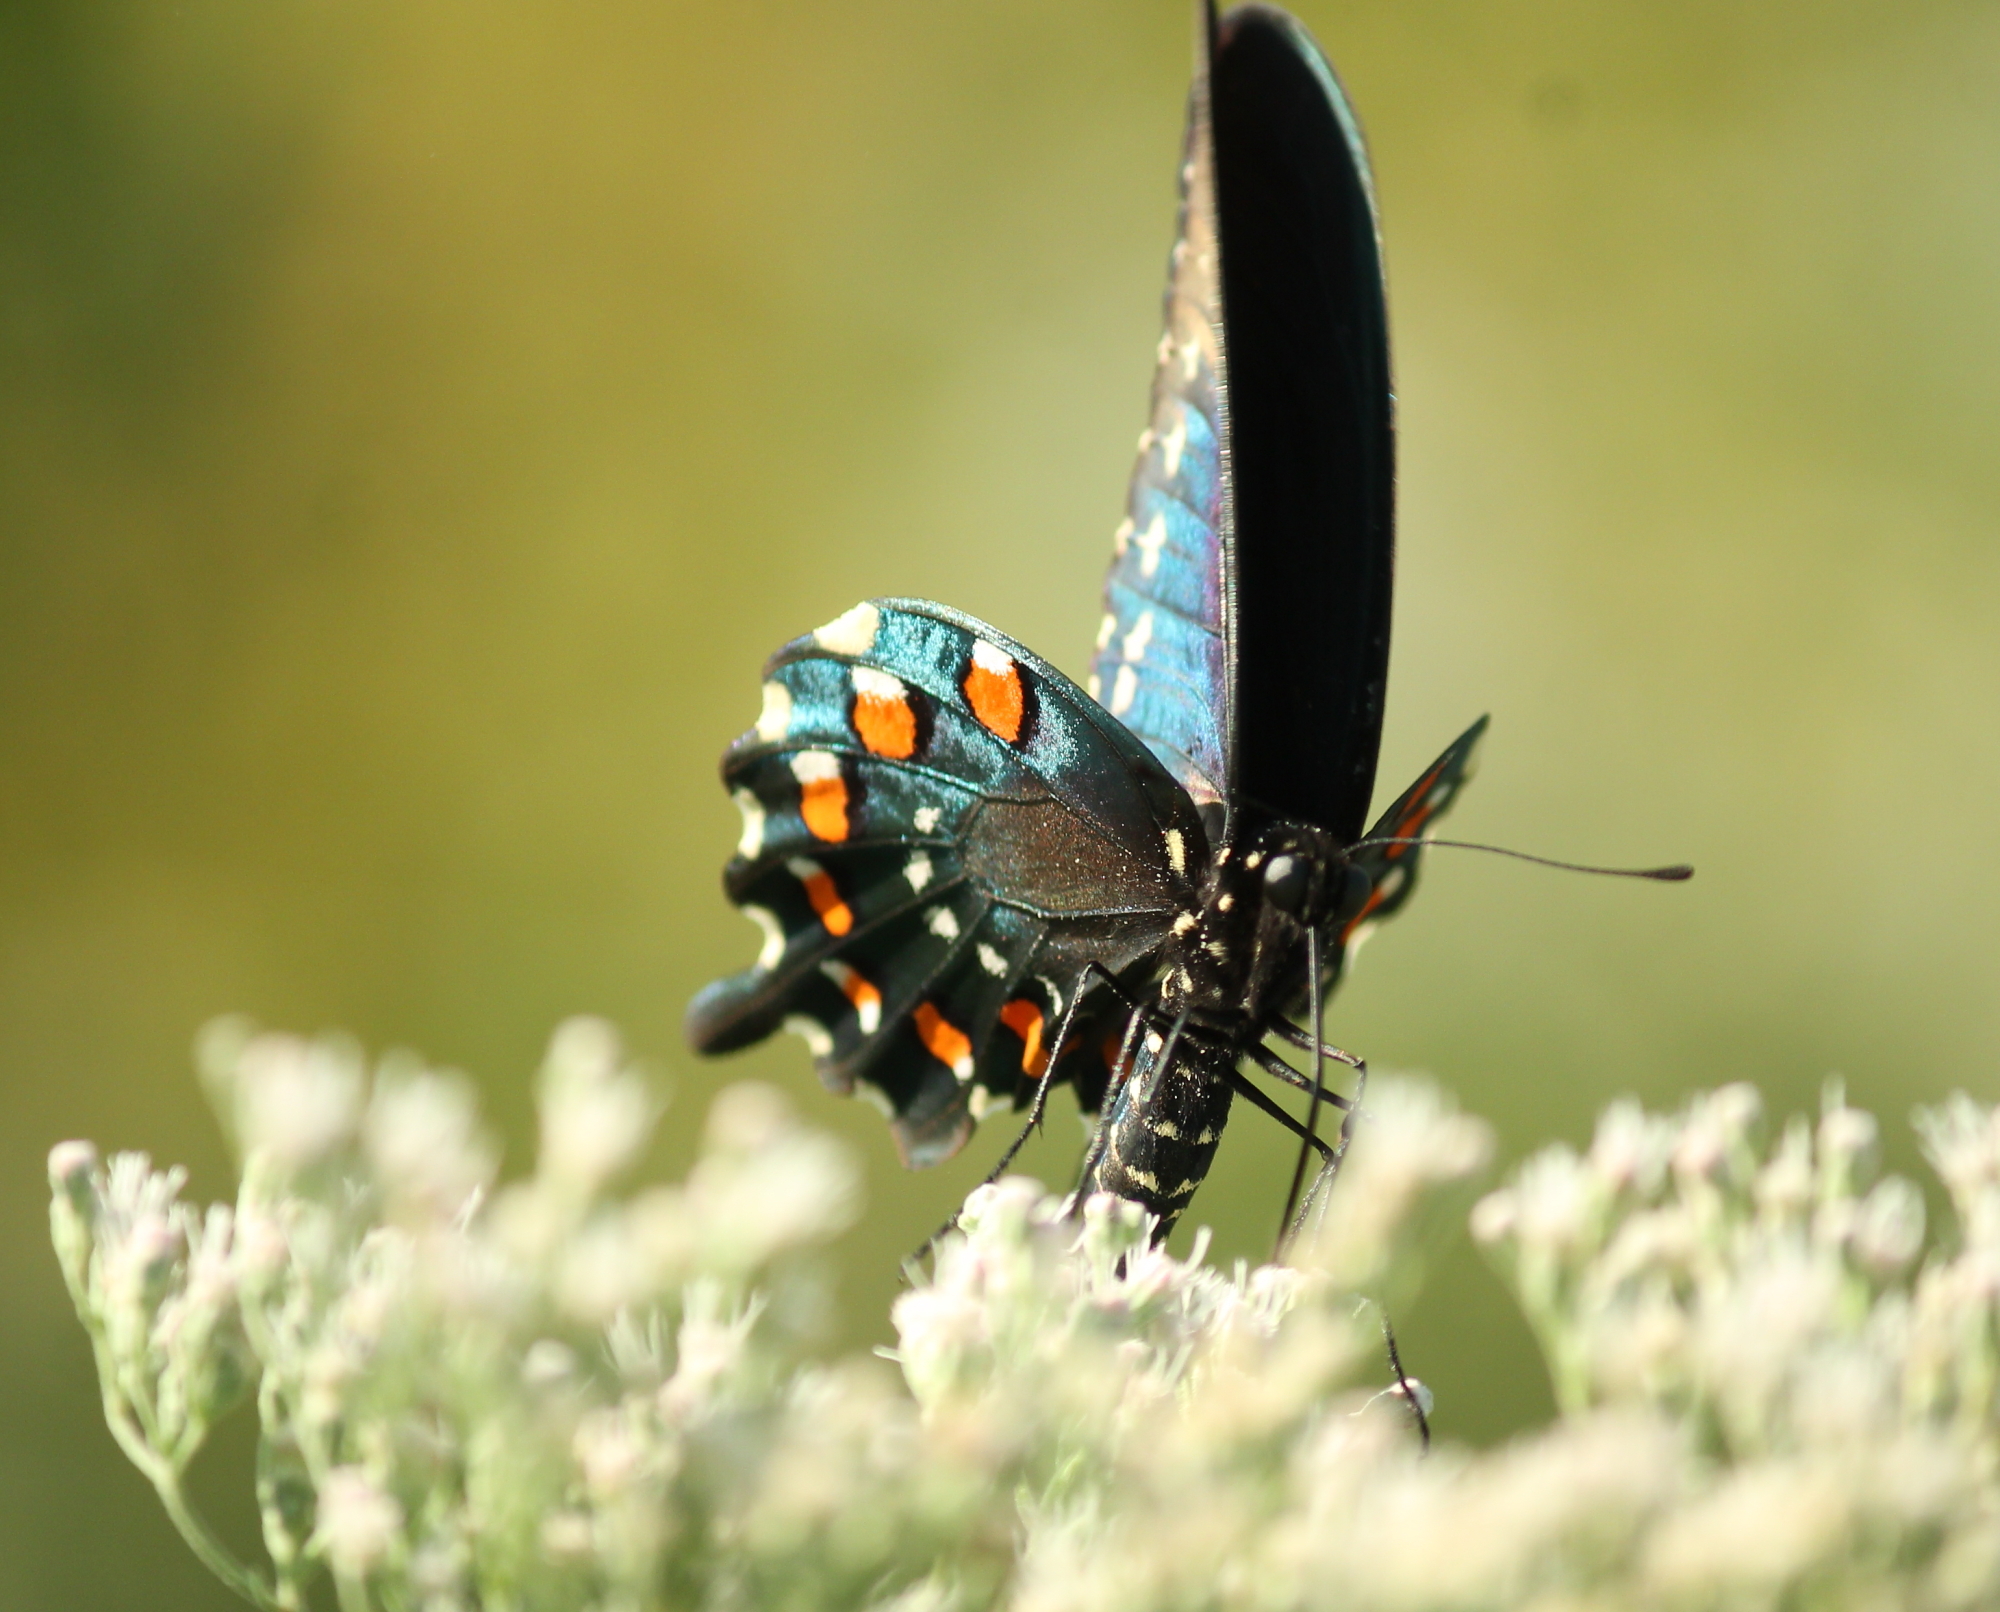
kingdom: Animalia
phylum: Arthropoda
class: Insecta
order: Lepidoptera
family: Papilionidae
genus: Battus
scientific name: Battus philenor
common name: Pipevine swallowtail
